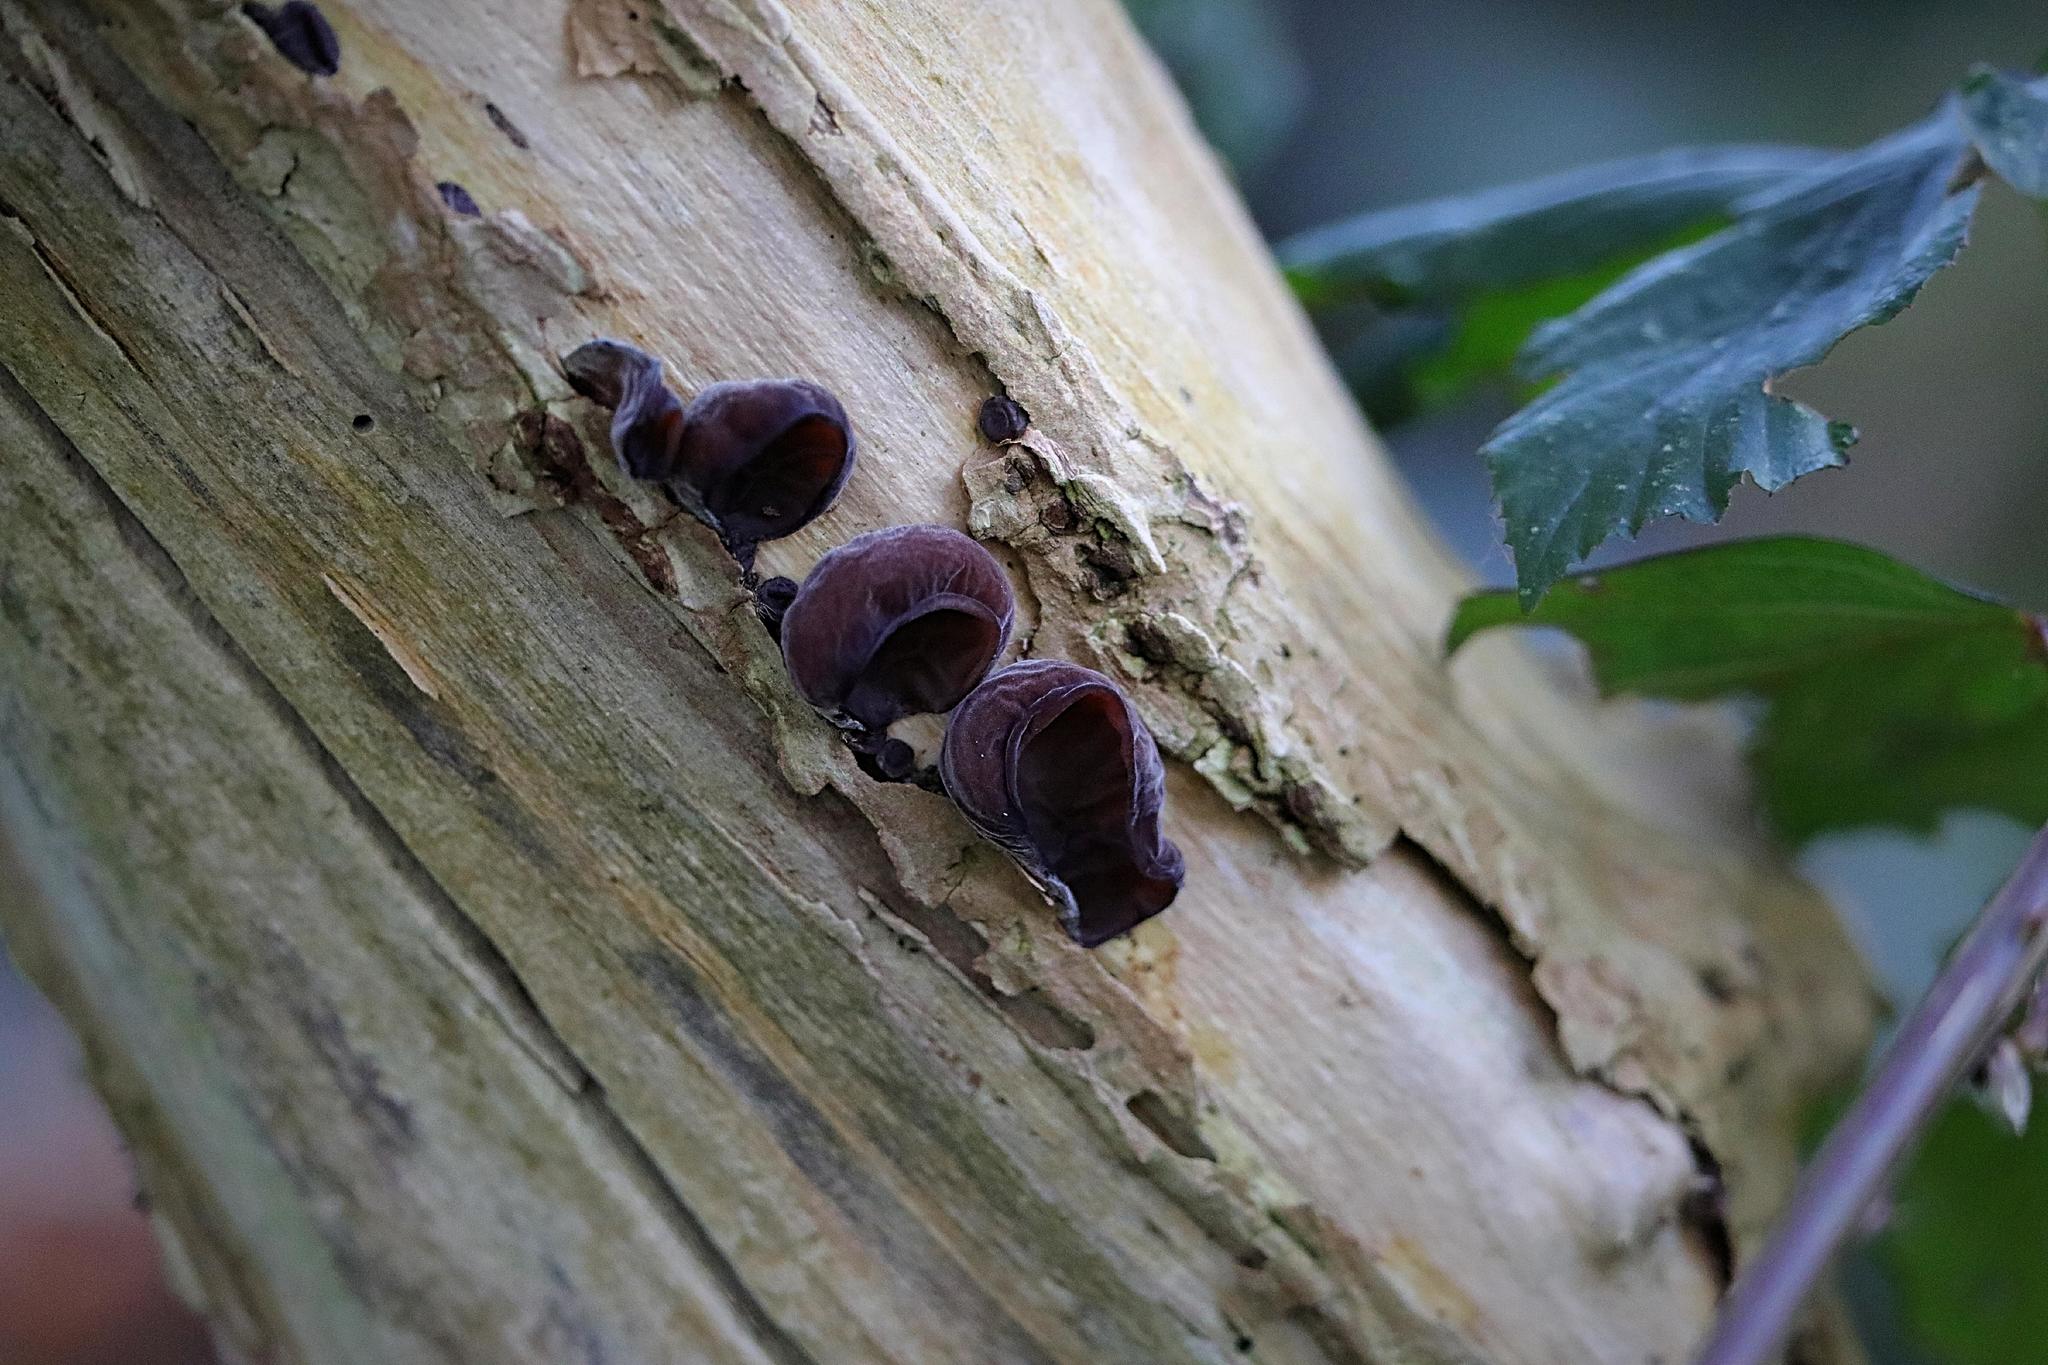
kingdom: Fungi
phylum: Basidiomycota
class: Agaricomycetes
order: Auriculariales
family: Auriculariaceae
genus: Auricularia
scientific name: Auricularia auricula-judae
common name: Jelly ear
